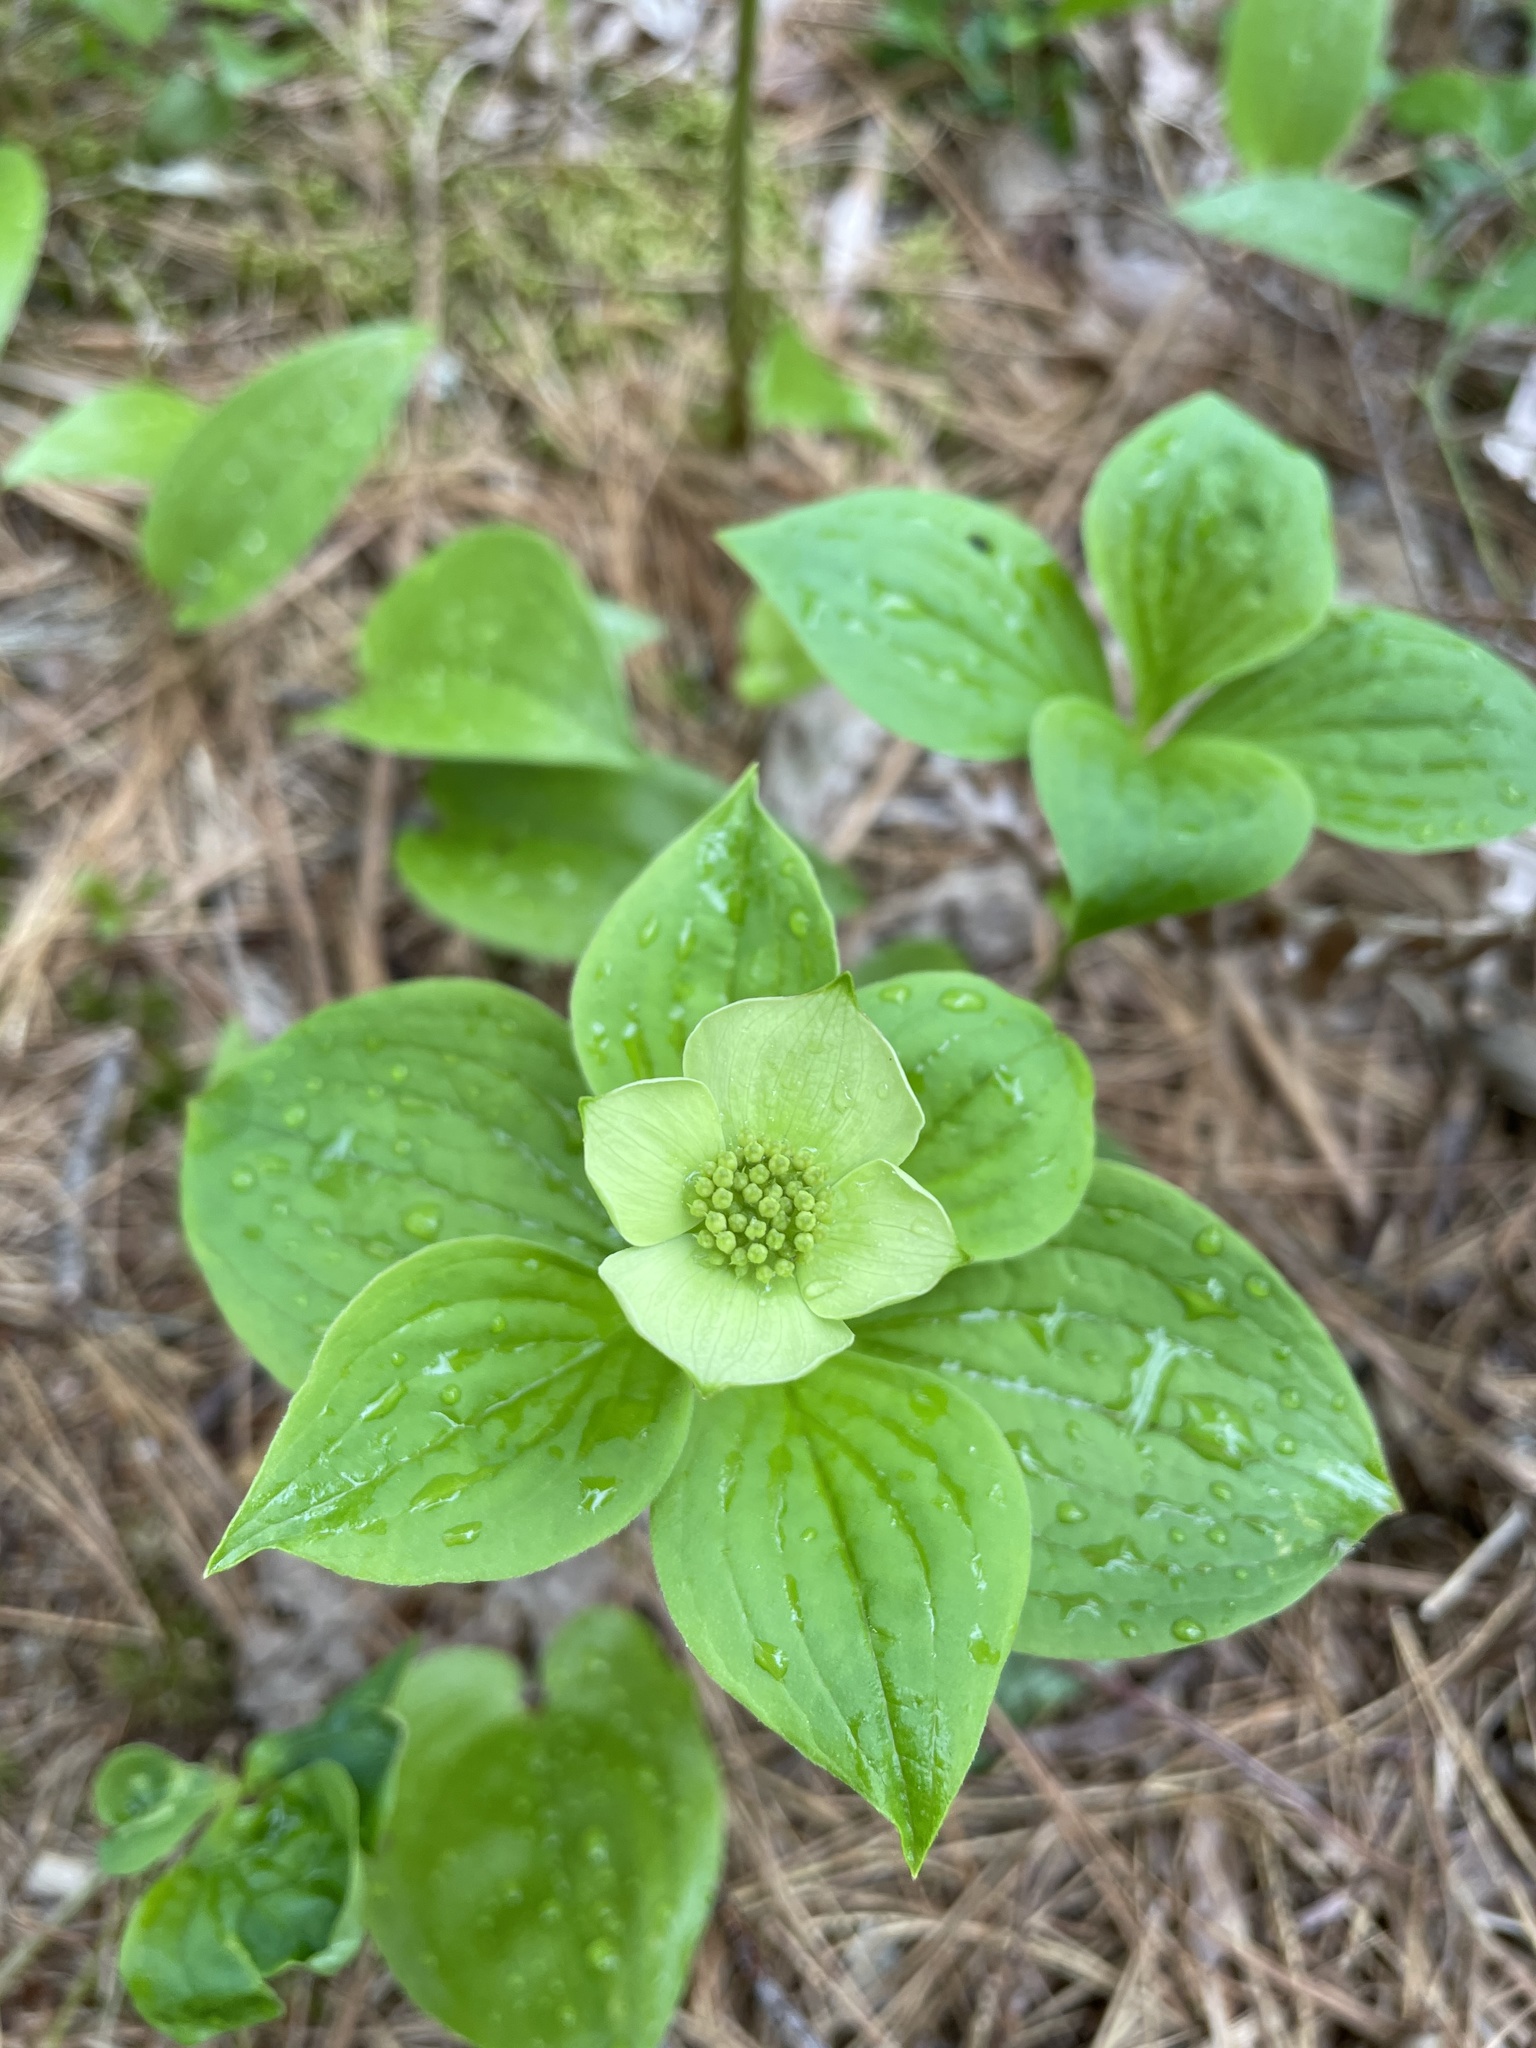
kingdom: Plantae
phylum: Tracheophyta
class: Magnoliopsida
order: Cornales
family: Cornaceae
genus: Cornus
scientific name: Cornus canadensis
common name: Creeping dogwood
